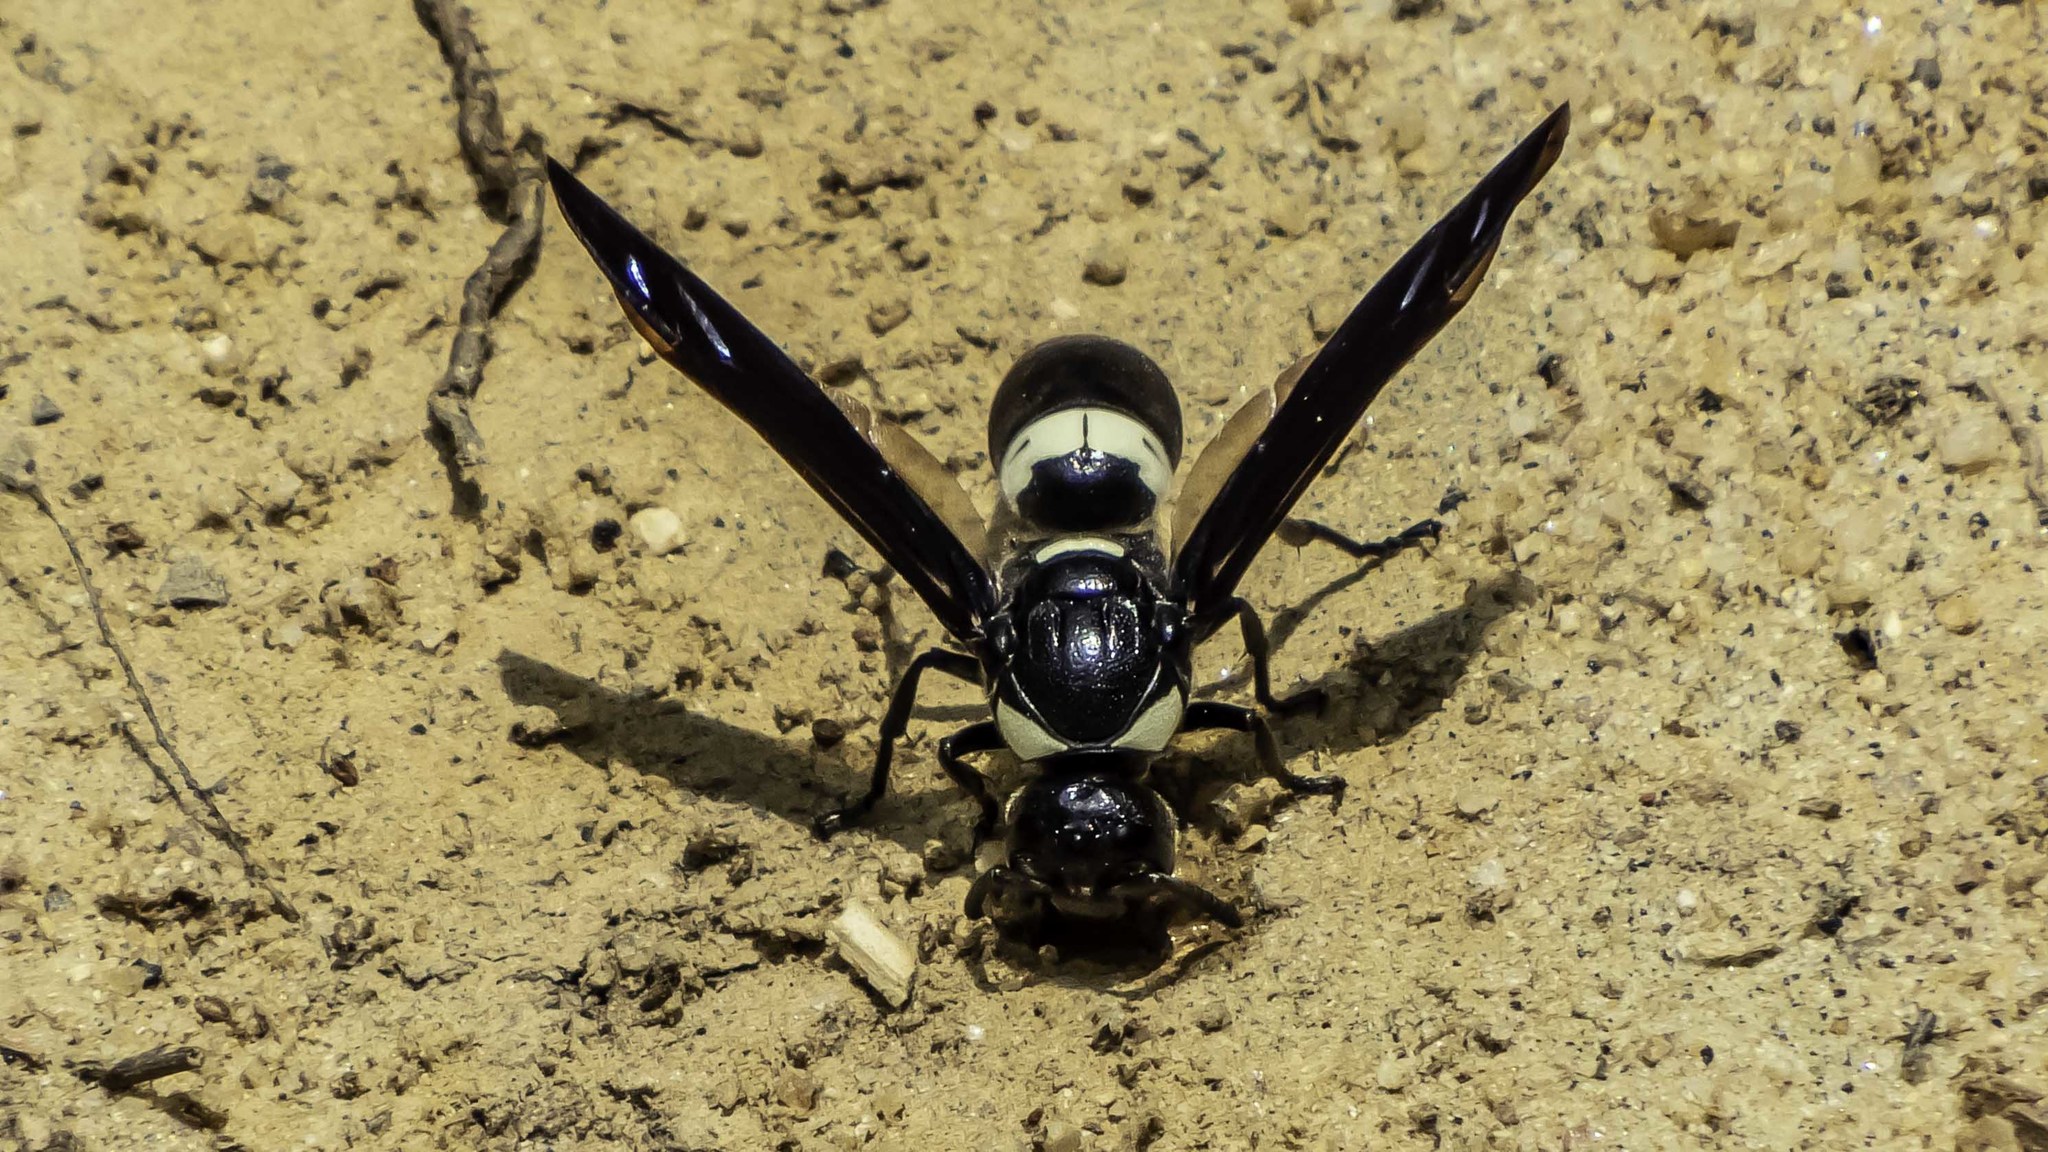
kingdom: Animalia
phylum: Arthropoda
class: Insecta
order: Hymenoptera
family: Eumenidae
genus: Monobia
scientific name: Monobia quadridens
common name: Four-toothed mason wasp
